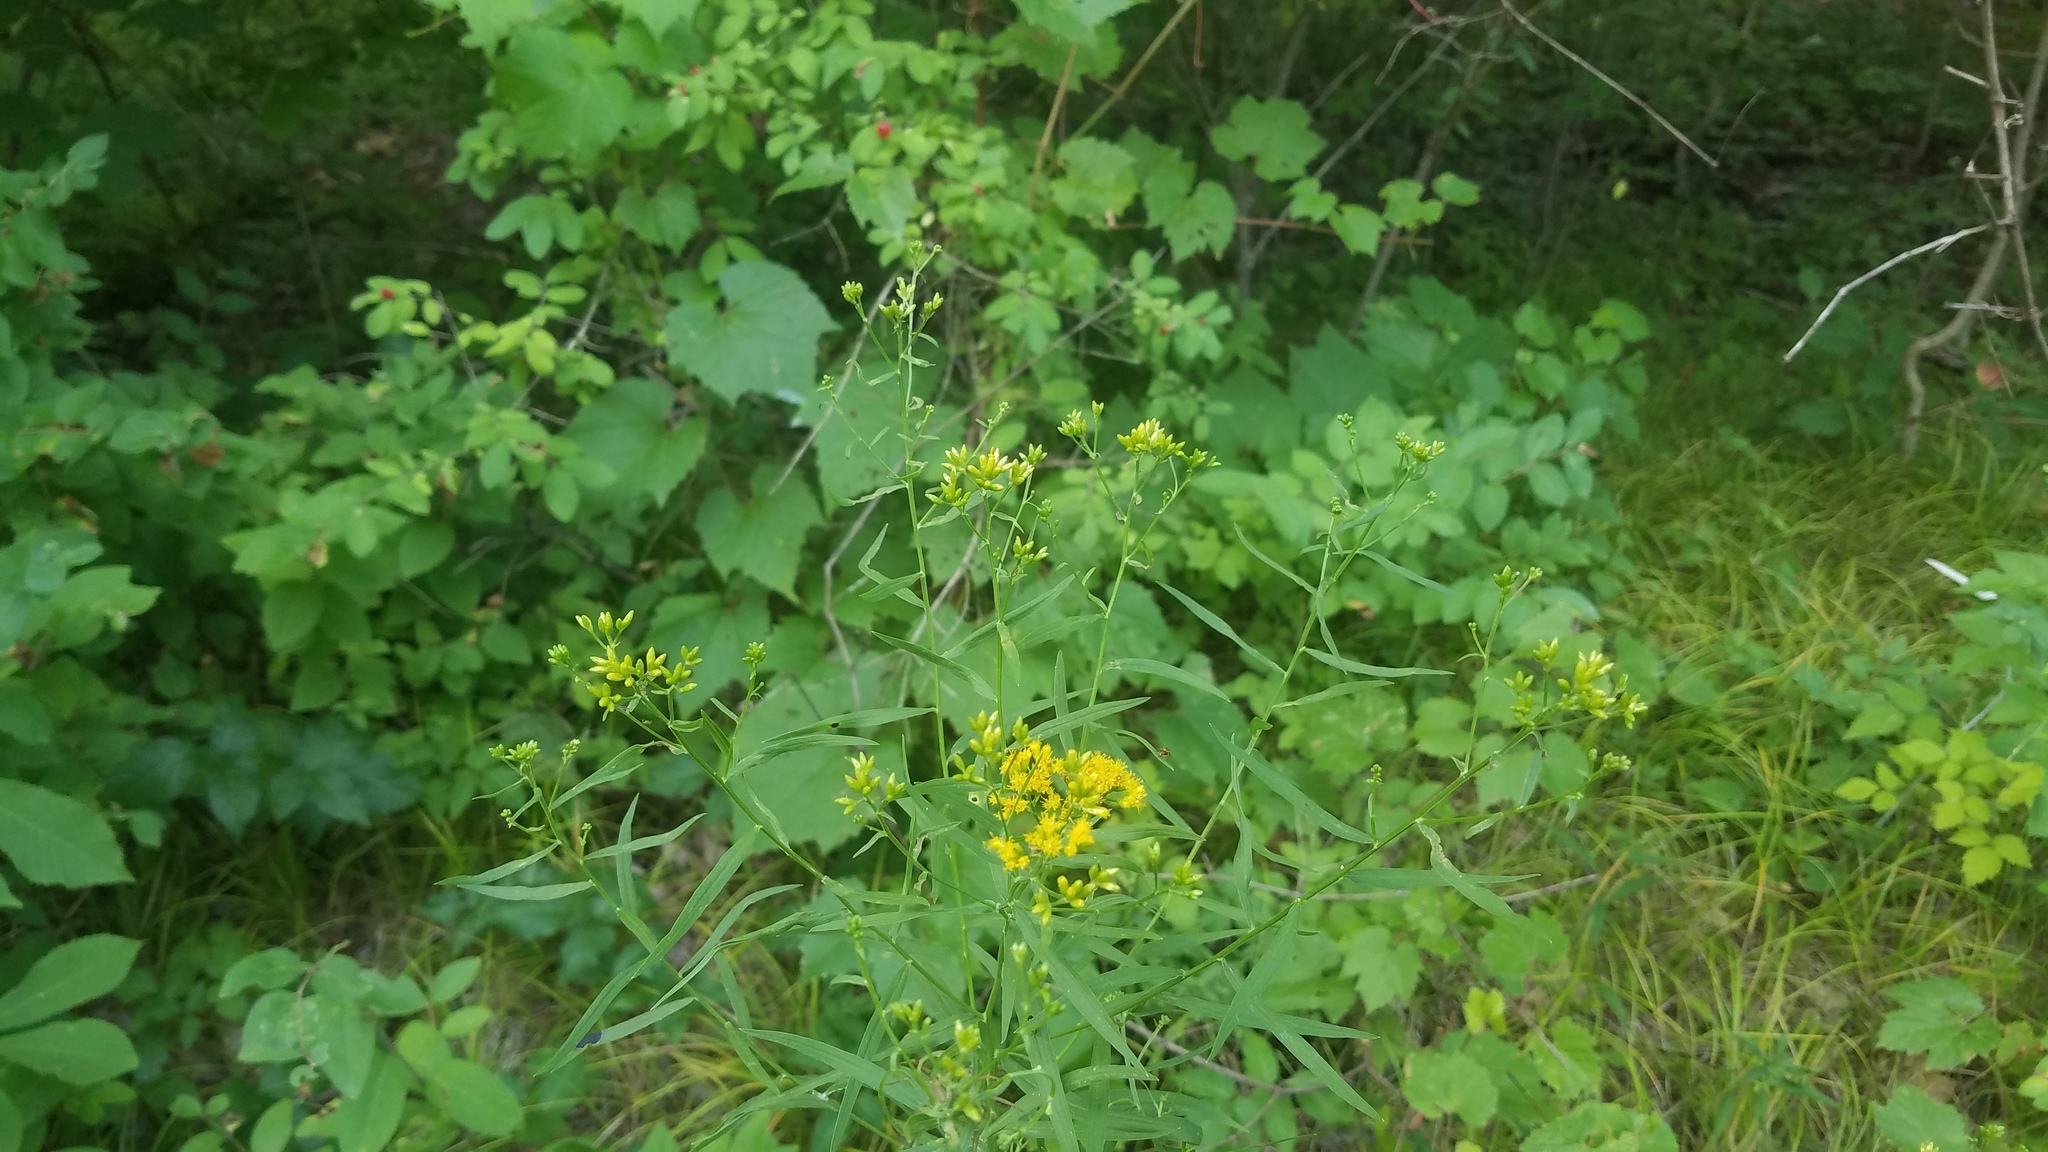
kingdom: Plantae
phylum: Tracheophyta
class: Magnoliopsida
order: Asterales
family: Asteraceae
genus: Euthamia
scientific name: Euthamia graminifolia
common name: Common goldentop
